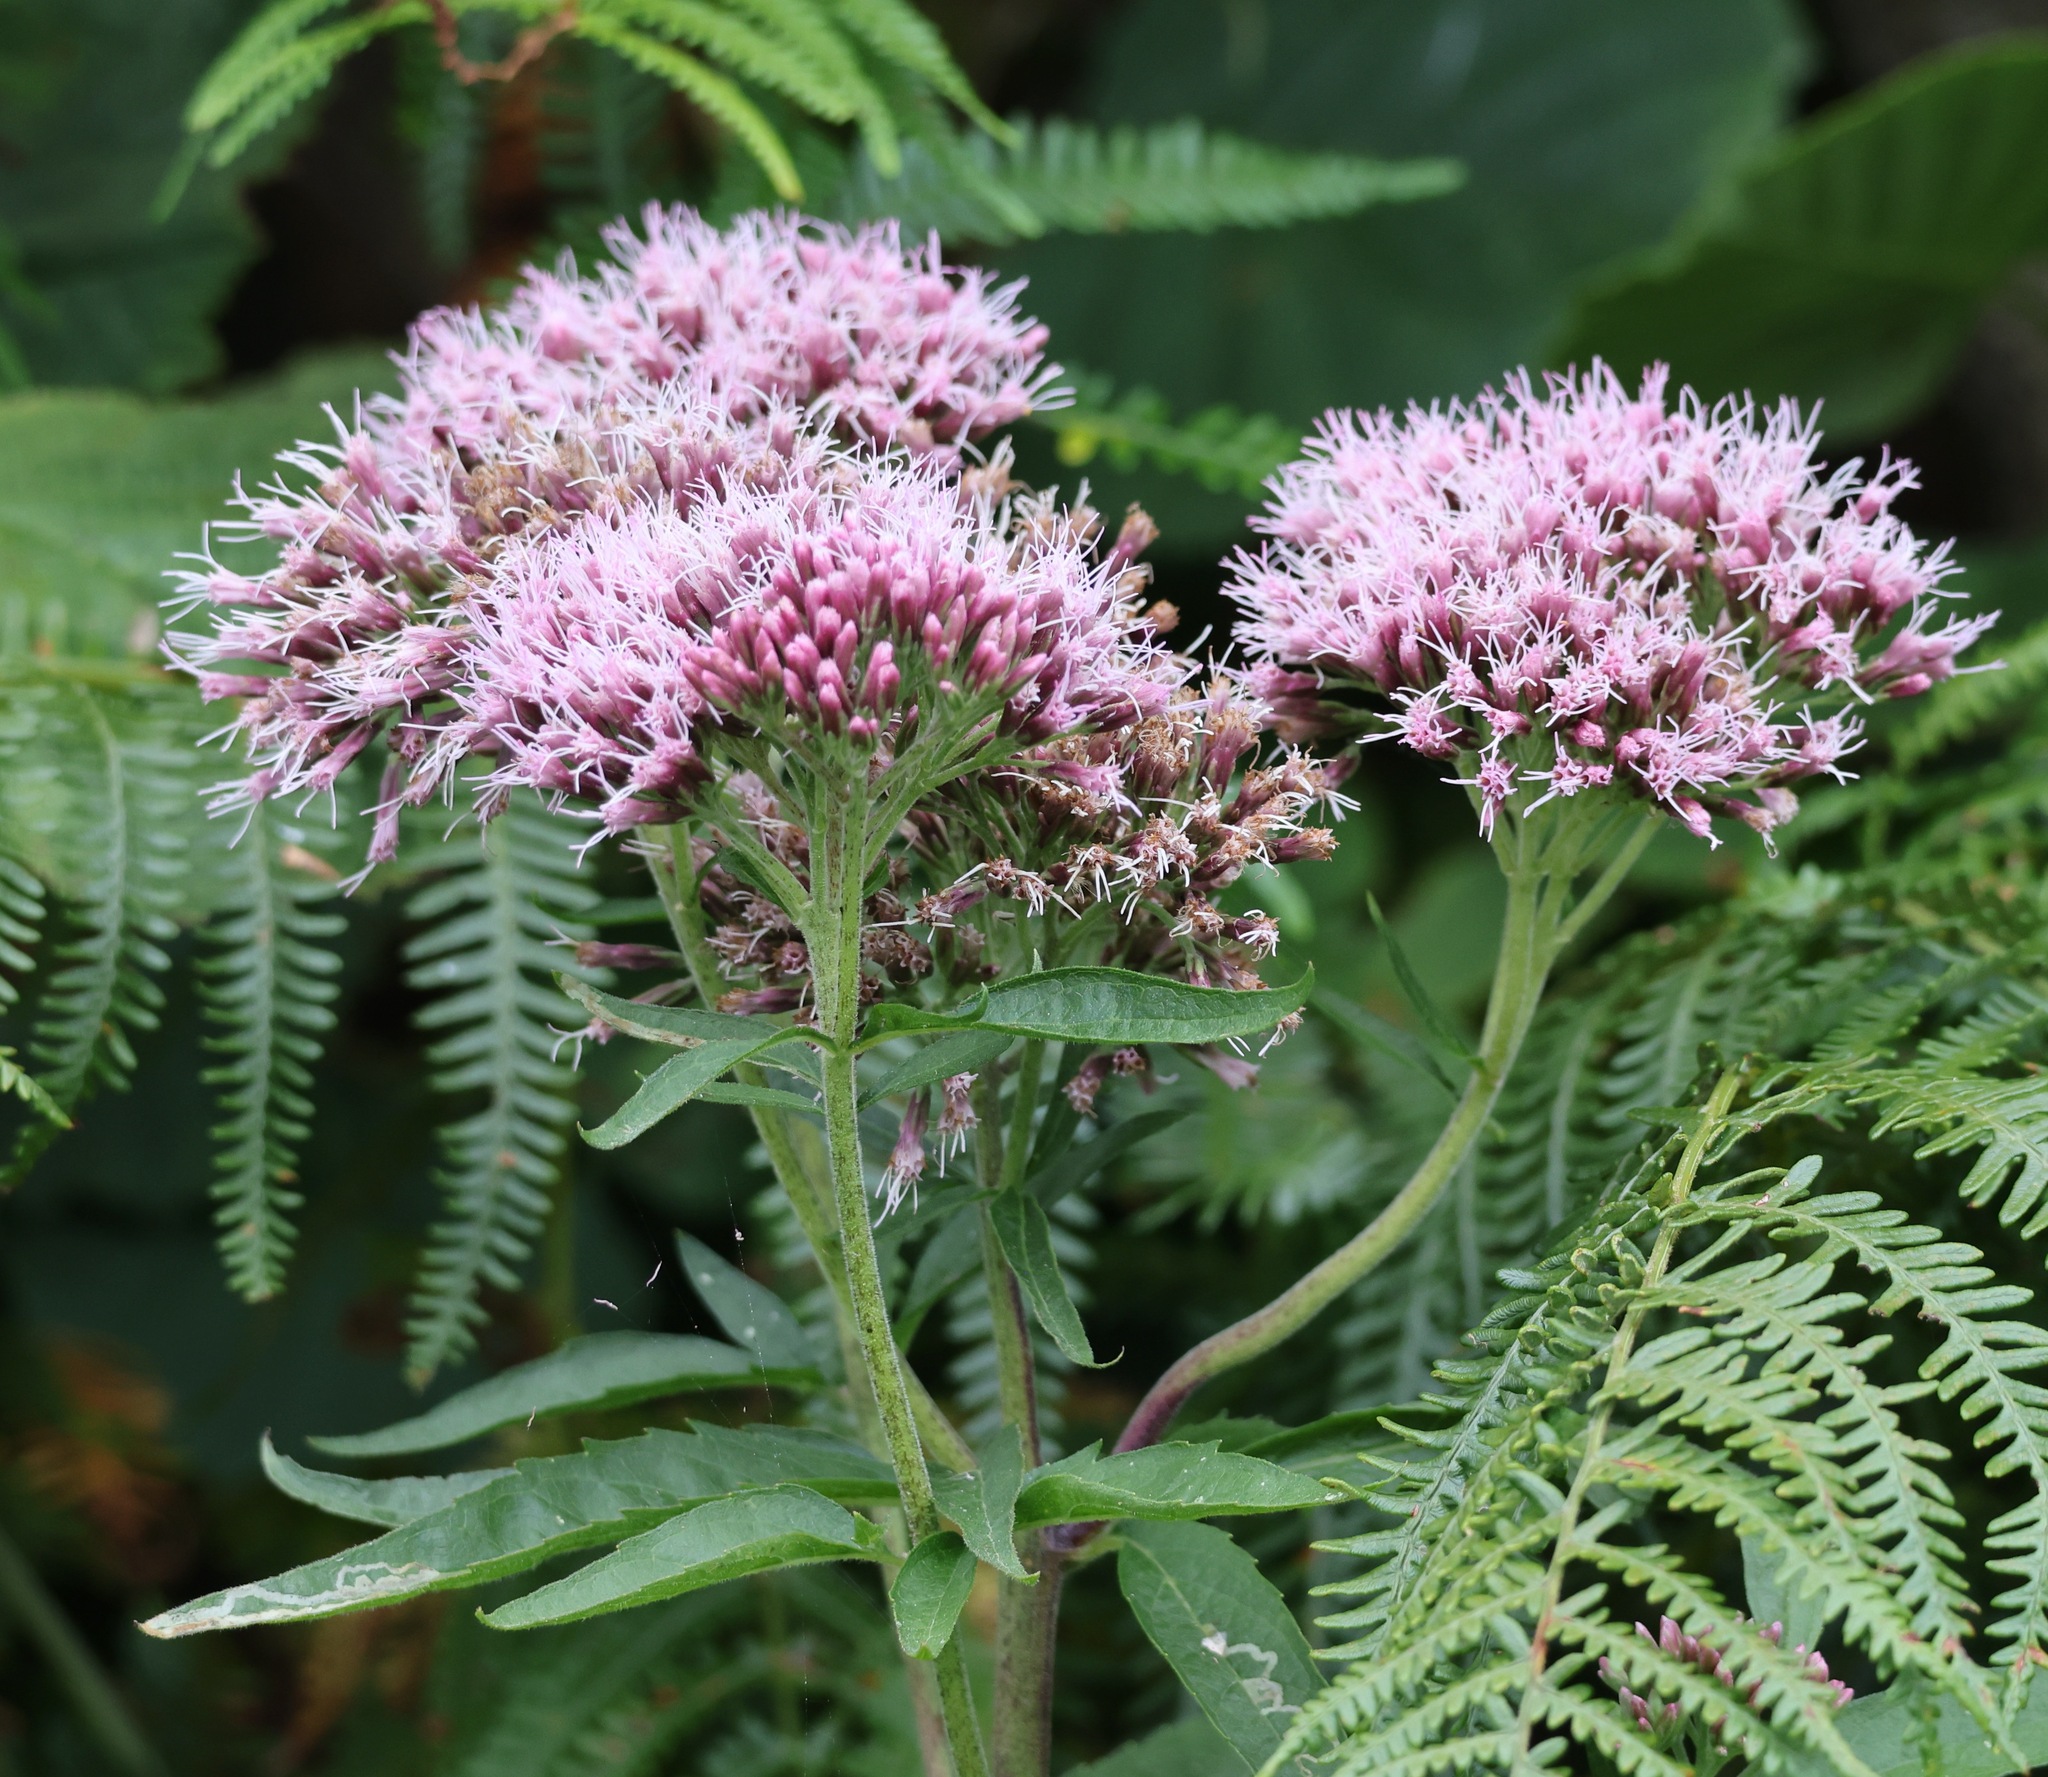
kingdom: Plantae
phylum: Tracheophyta
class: Magnoliopsida
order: Asterales
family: Asteraceae
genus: Eupatorium
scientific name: Eupatorium cannabinum
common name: Hemp-agrimony
